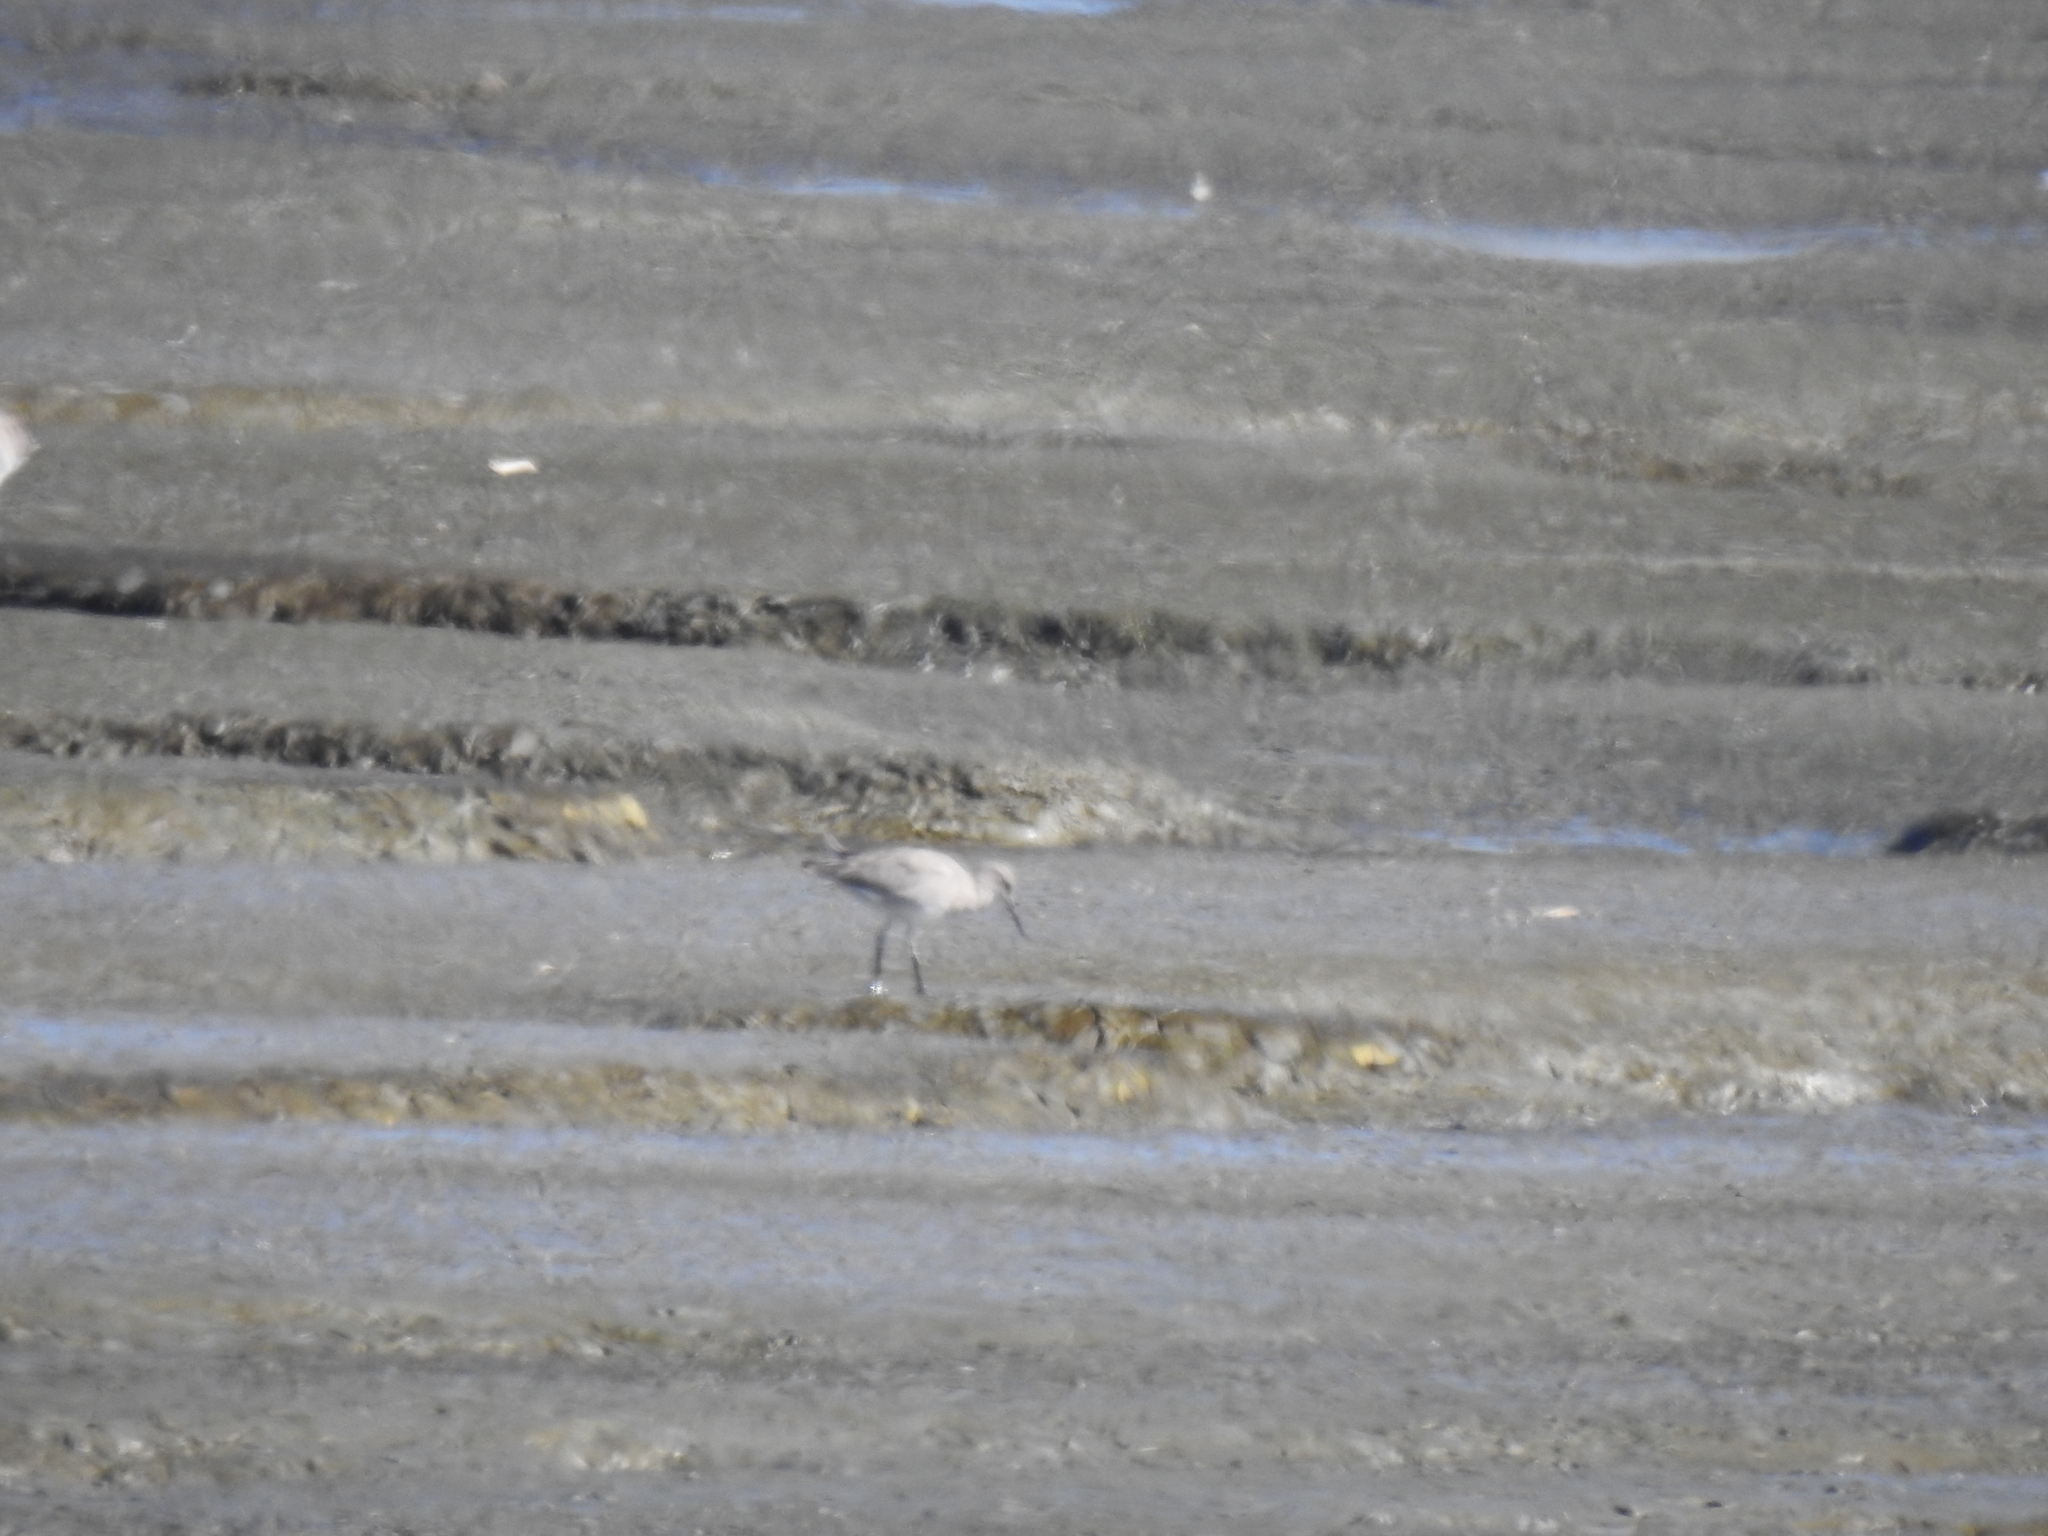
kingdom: Animalia
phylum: Chordata
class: Aves
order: Charadriiformes
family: Scolopacidae
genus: Tringa
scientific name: Tringa semipalmata
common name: Willet
